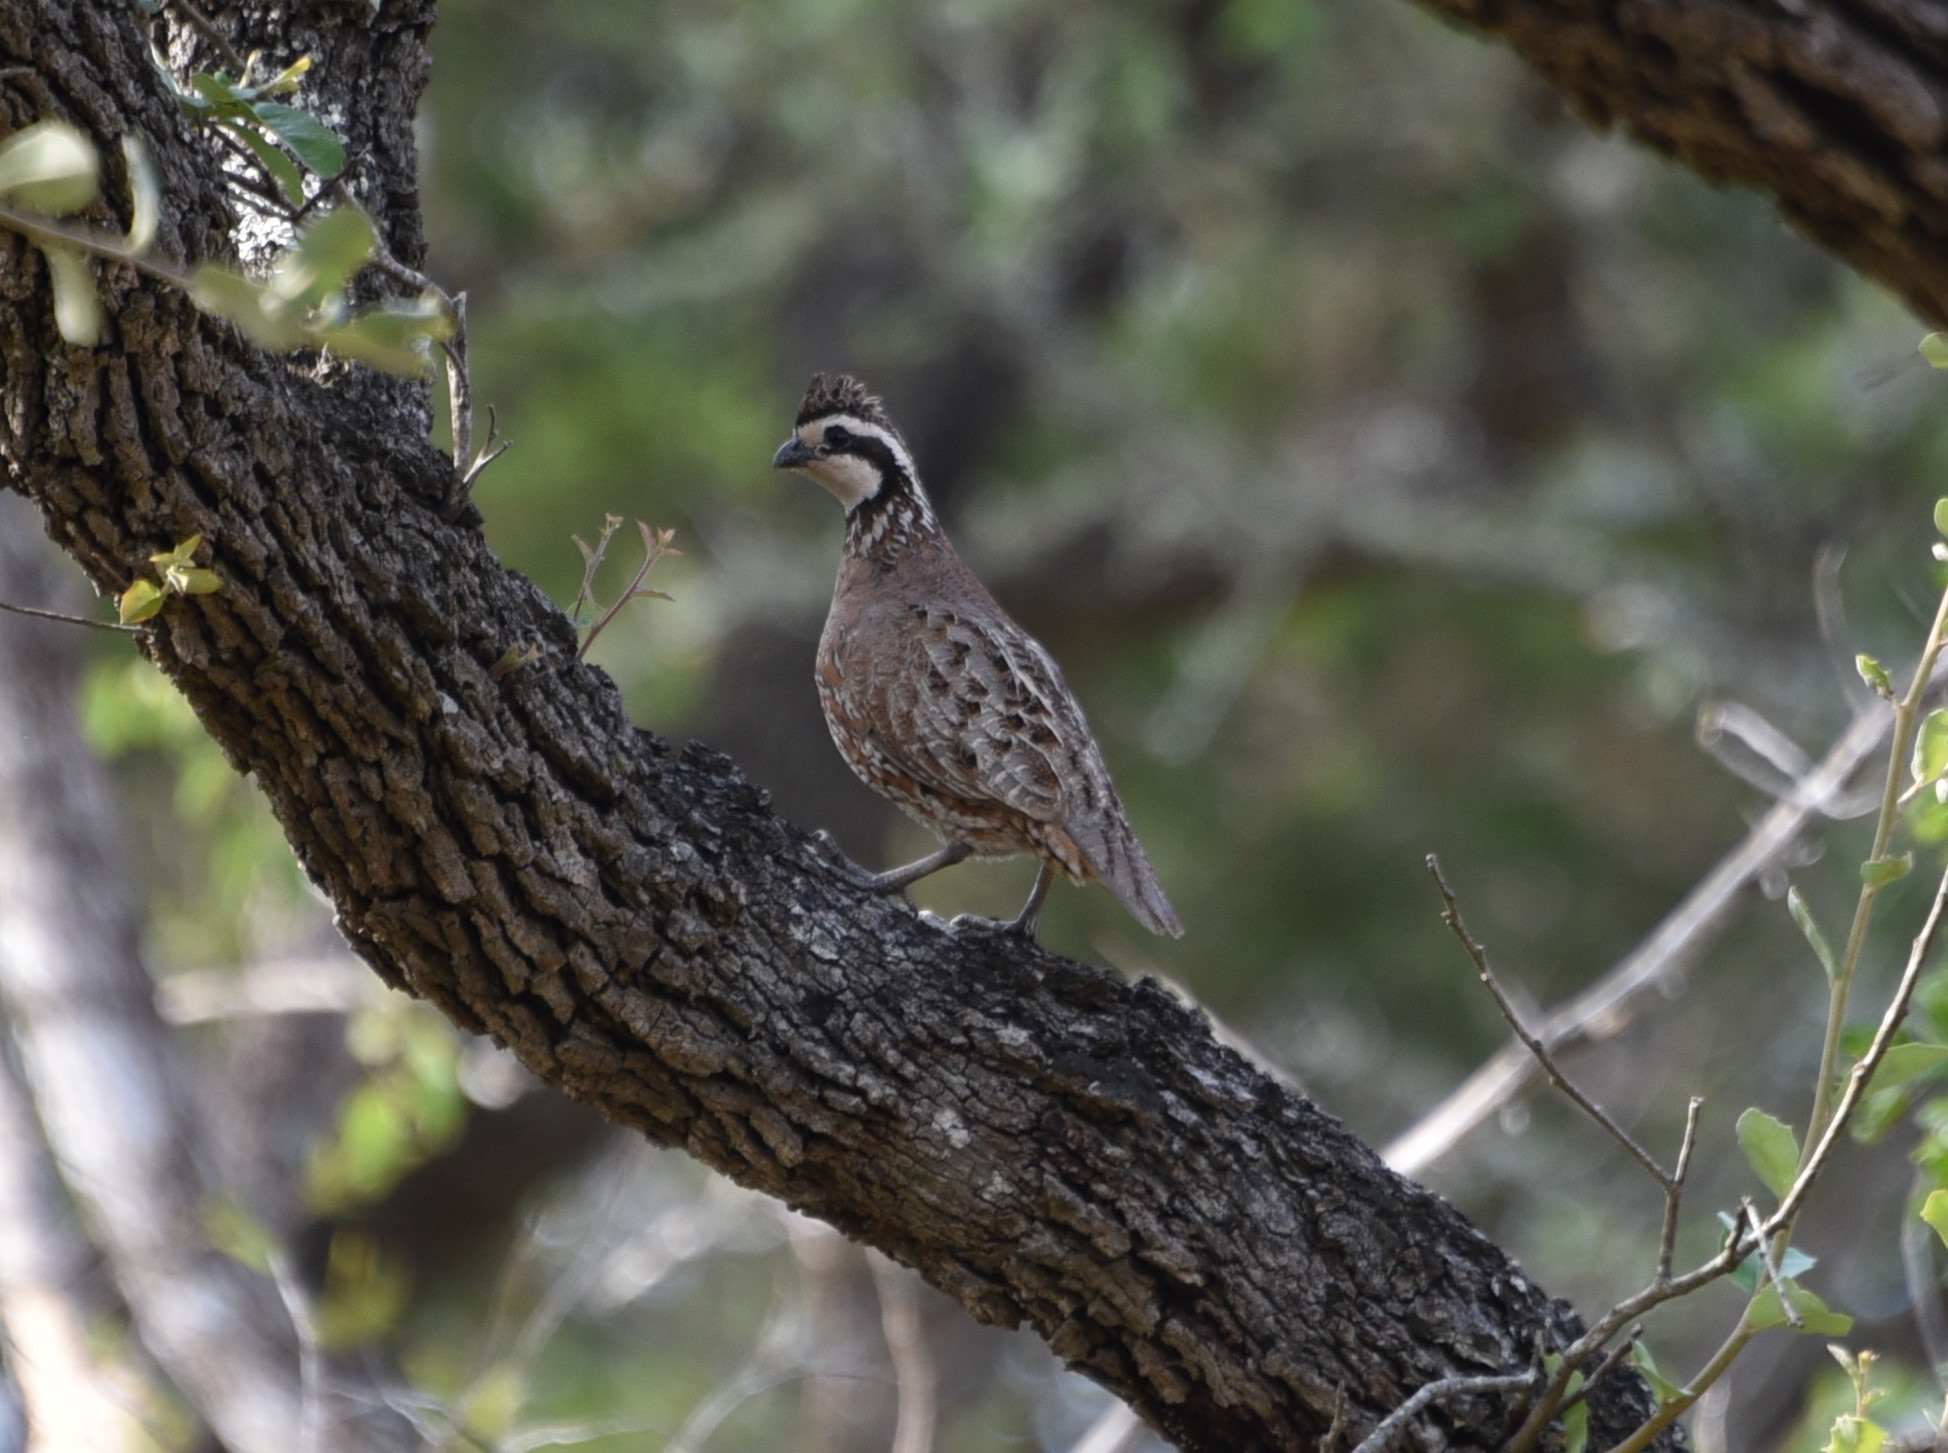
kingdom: Animalia
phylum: Chordata
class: Aves
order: Galliformes
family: Odontophoridae
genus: Colinus
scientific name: Colinus virginianus
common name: Northern bobwhite
